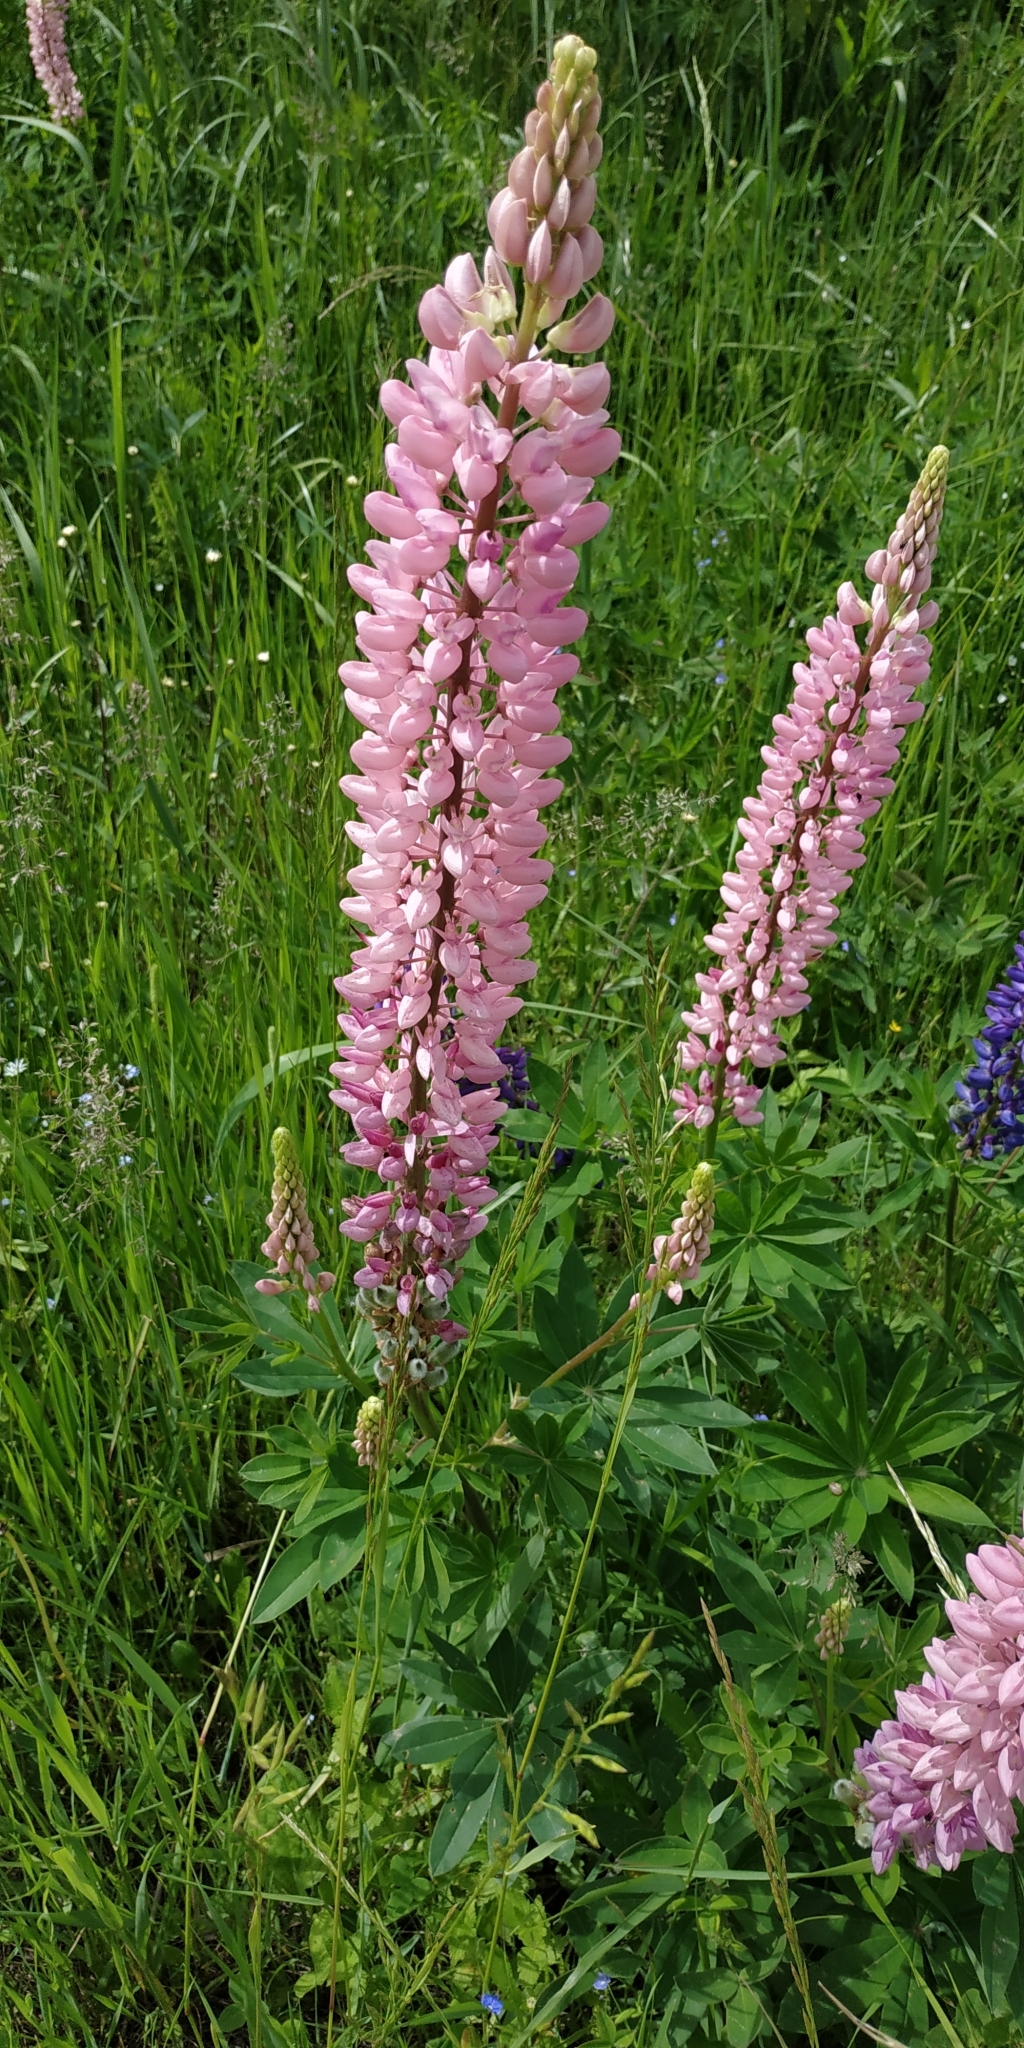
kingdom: Plantae
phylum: Tracheophyta
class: Magnoliopsida
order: Fabales
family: Fabaceae
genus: Lupinus
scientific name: Lupinus polyphyllus
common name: Garden lupin
